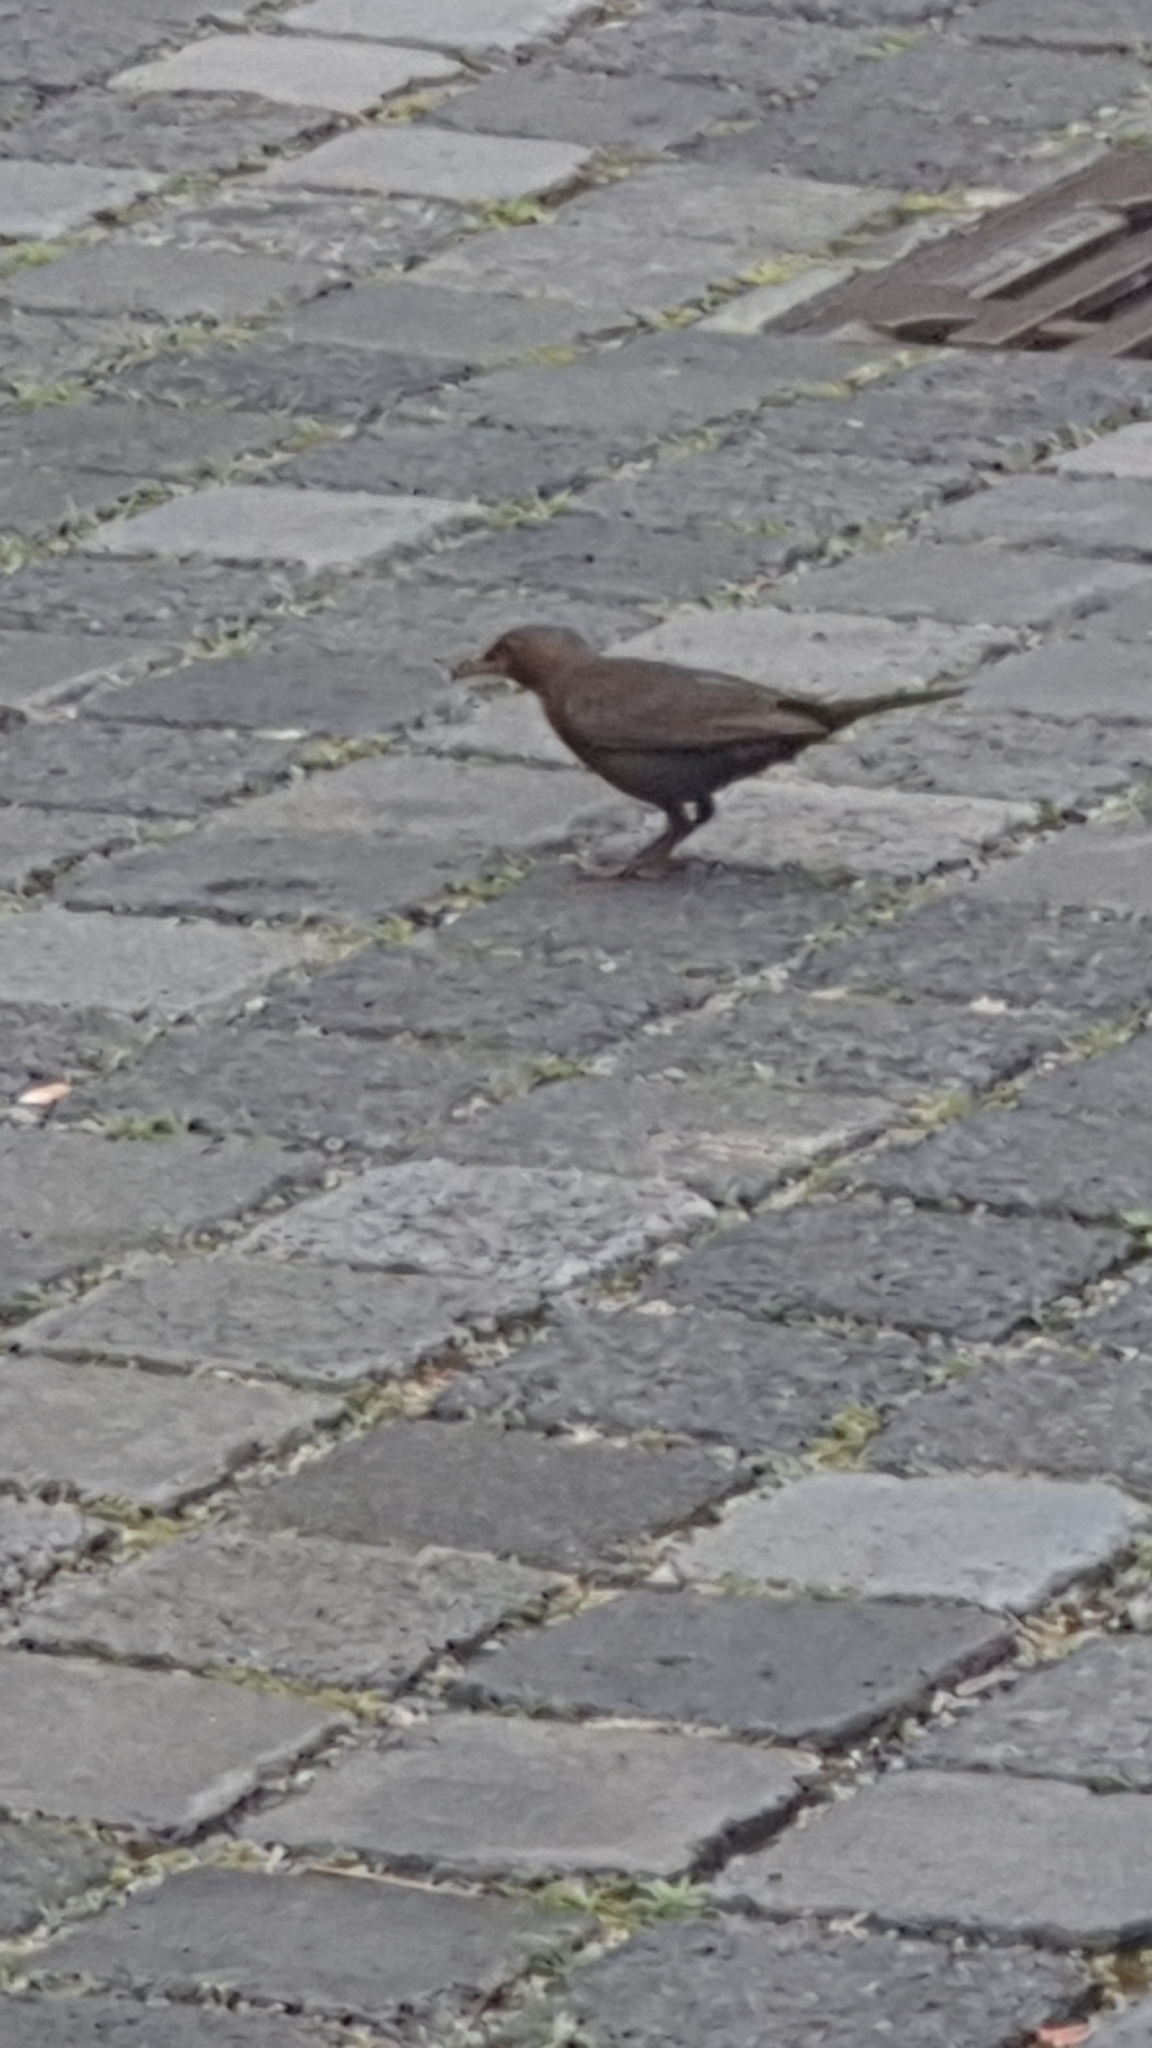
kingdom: Animalia
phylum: Chordata
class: Aves
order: Passeriformes
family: Turdidae
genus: Turdus
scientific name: Turdus merula
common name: Common blackbird
